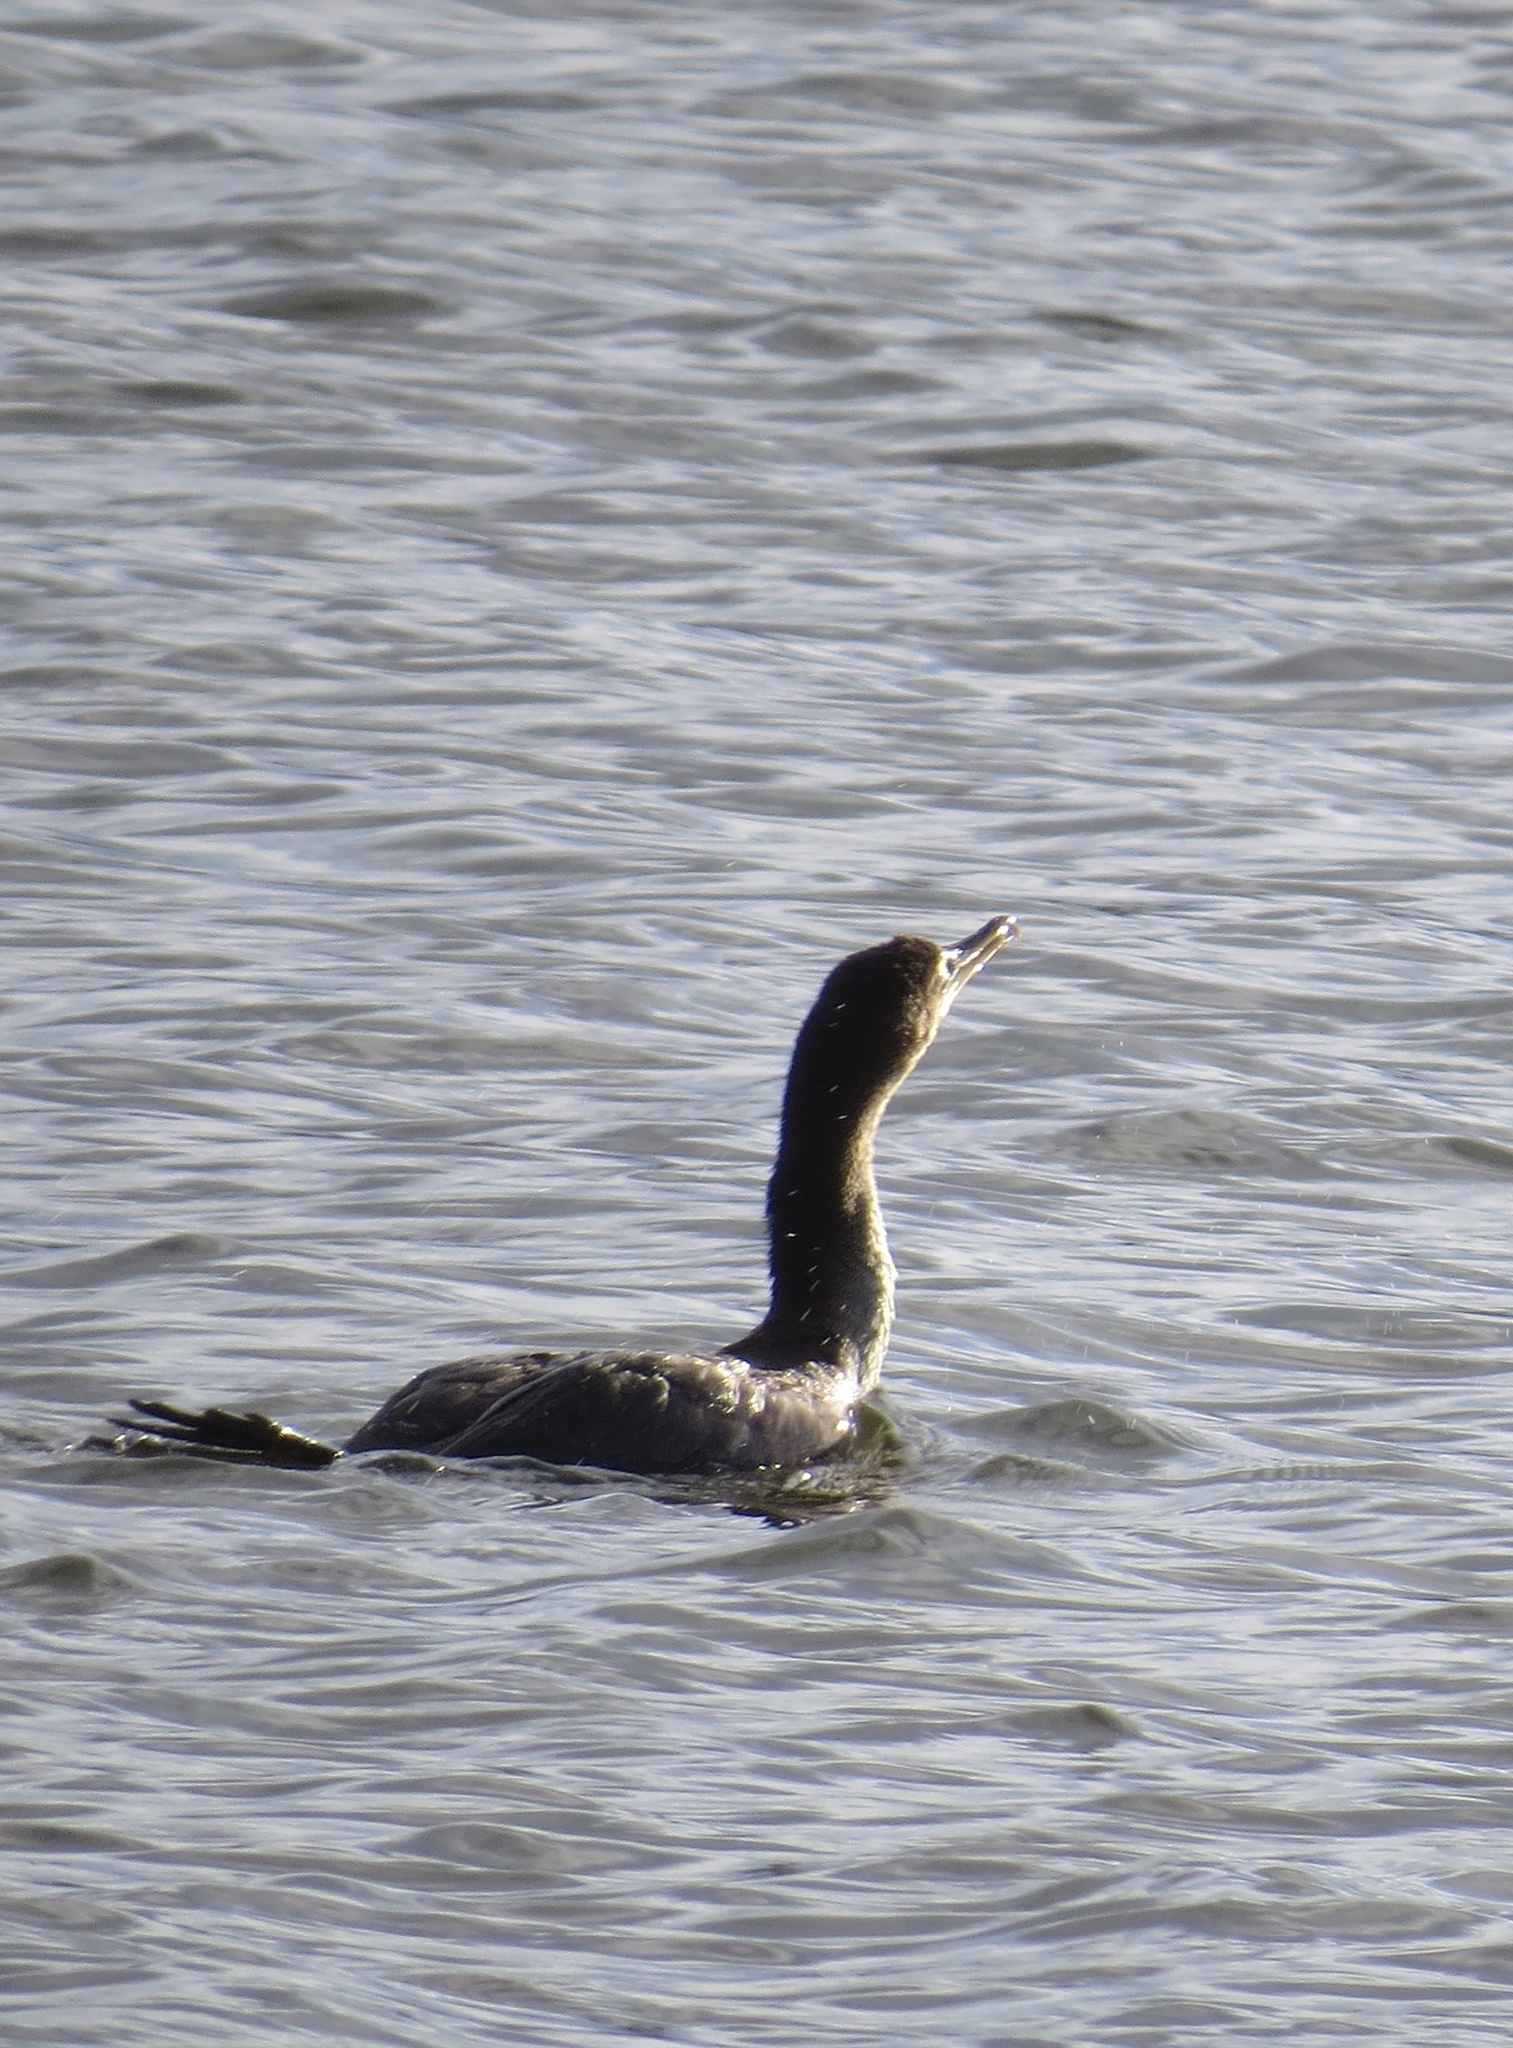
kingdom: Animalia
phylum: Chordata
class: Aves
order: Suliformes
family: Phalacrocoracidae
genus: Phalacrocorax
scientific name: Phalacrocorax auritus
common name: Double-crested cormorant
